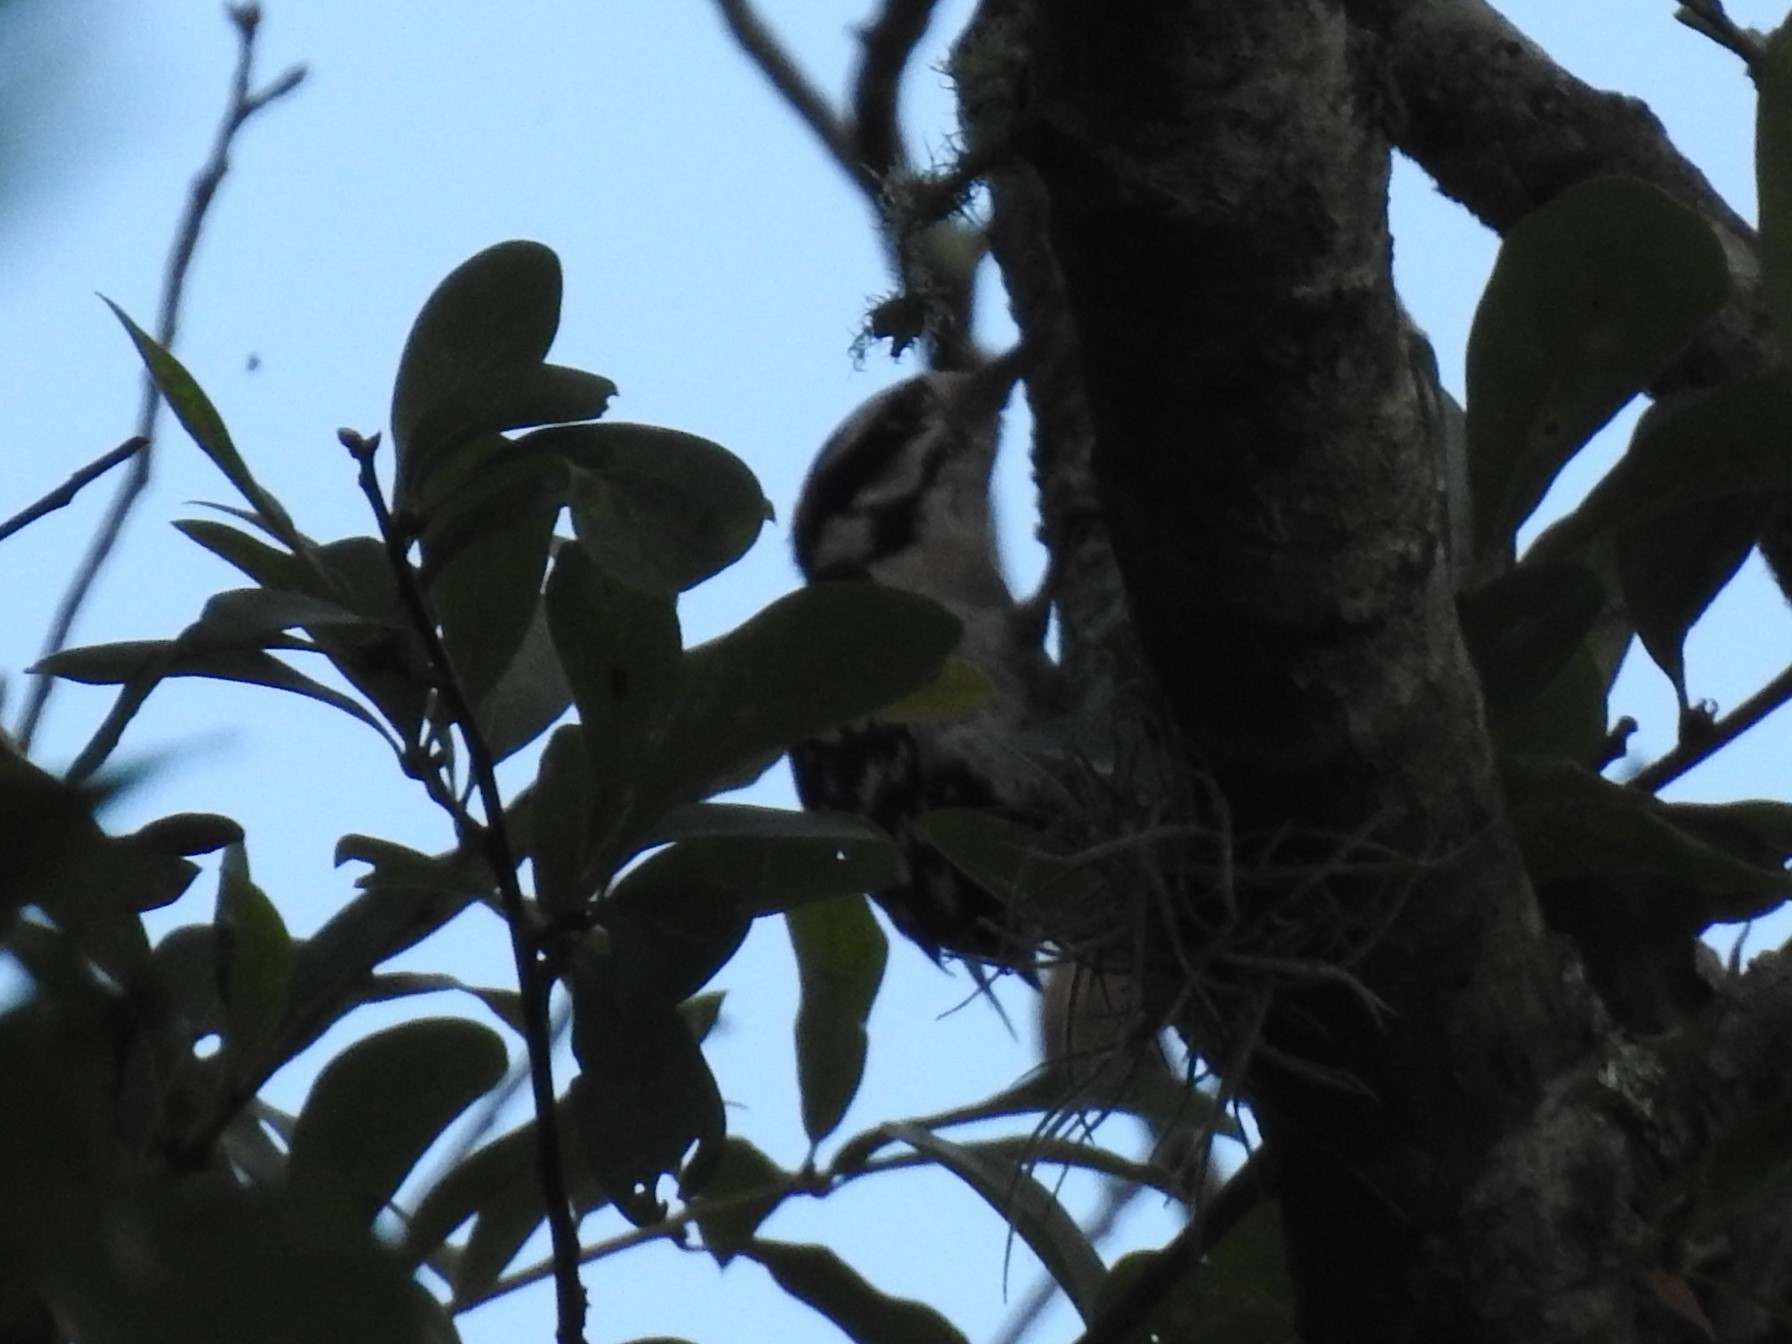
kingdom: Animalia
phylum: Chordata
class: Aves
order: Piciformes
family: Picidae
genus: Dryobates
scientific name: Dryobates pubescens
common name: Downy woodpecker
